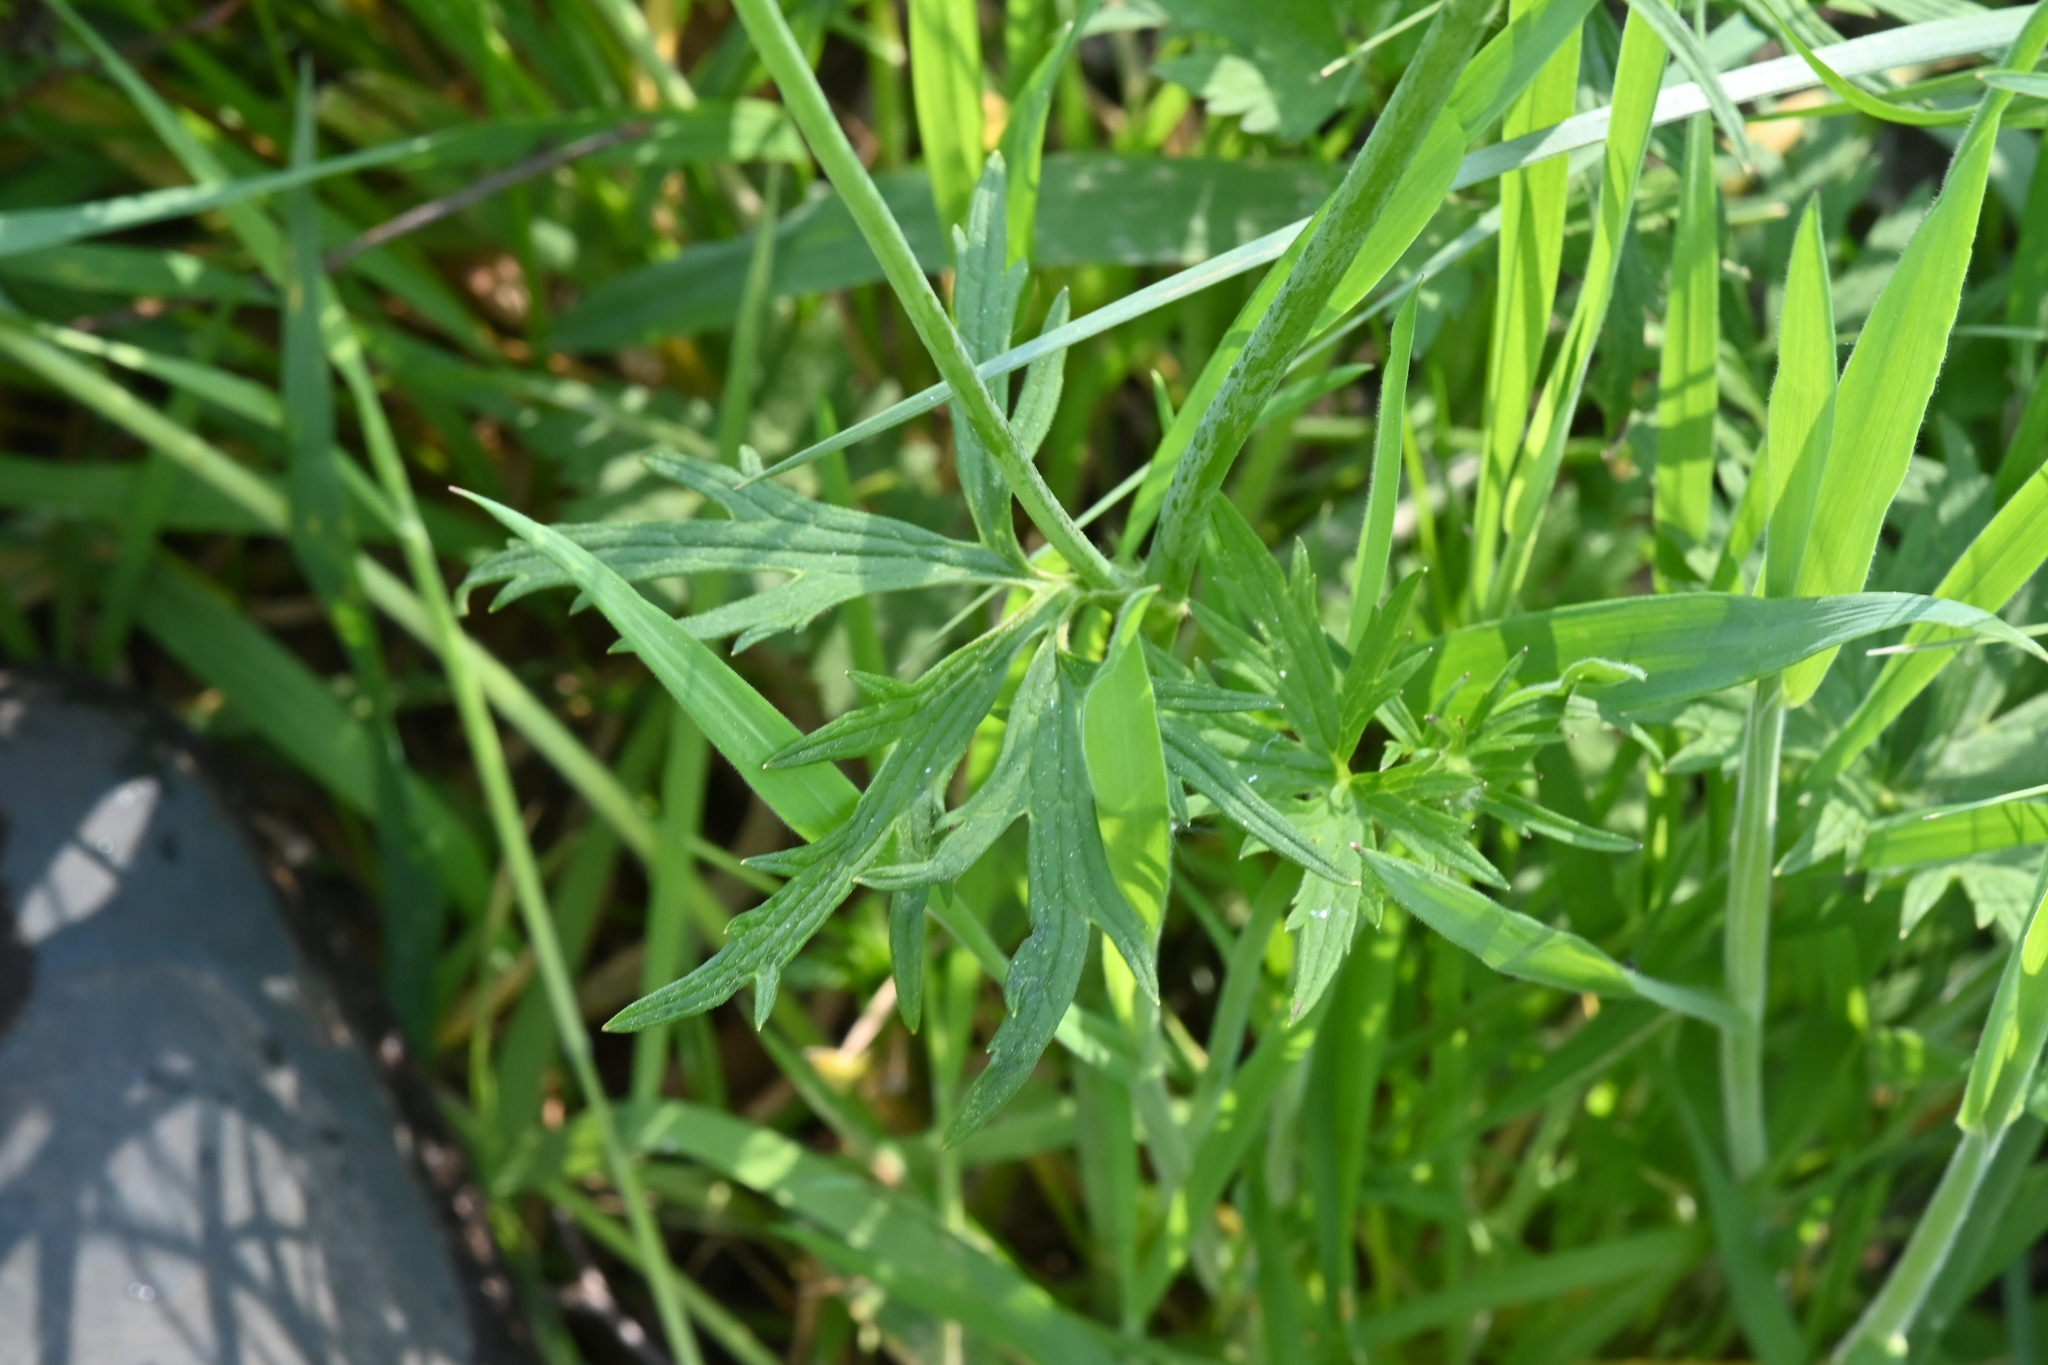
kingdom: Plantae
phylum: Tracheophyta
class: Magnoliopsida
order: Ranunculales
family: Ranunculaceae
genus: Ranunculus
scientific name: Ranunculus acris
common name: Meadow buttercup
